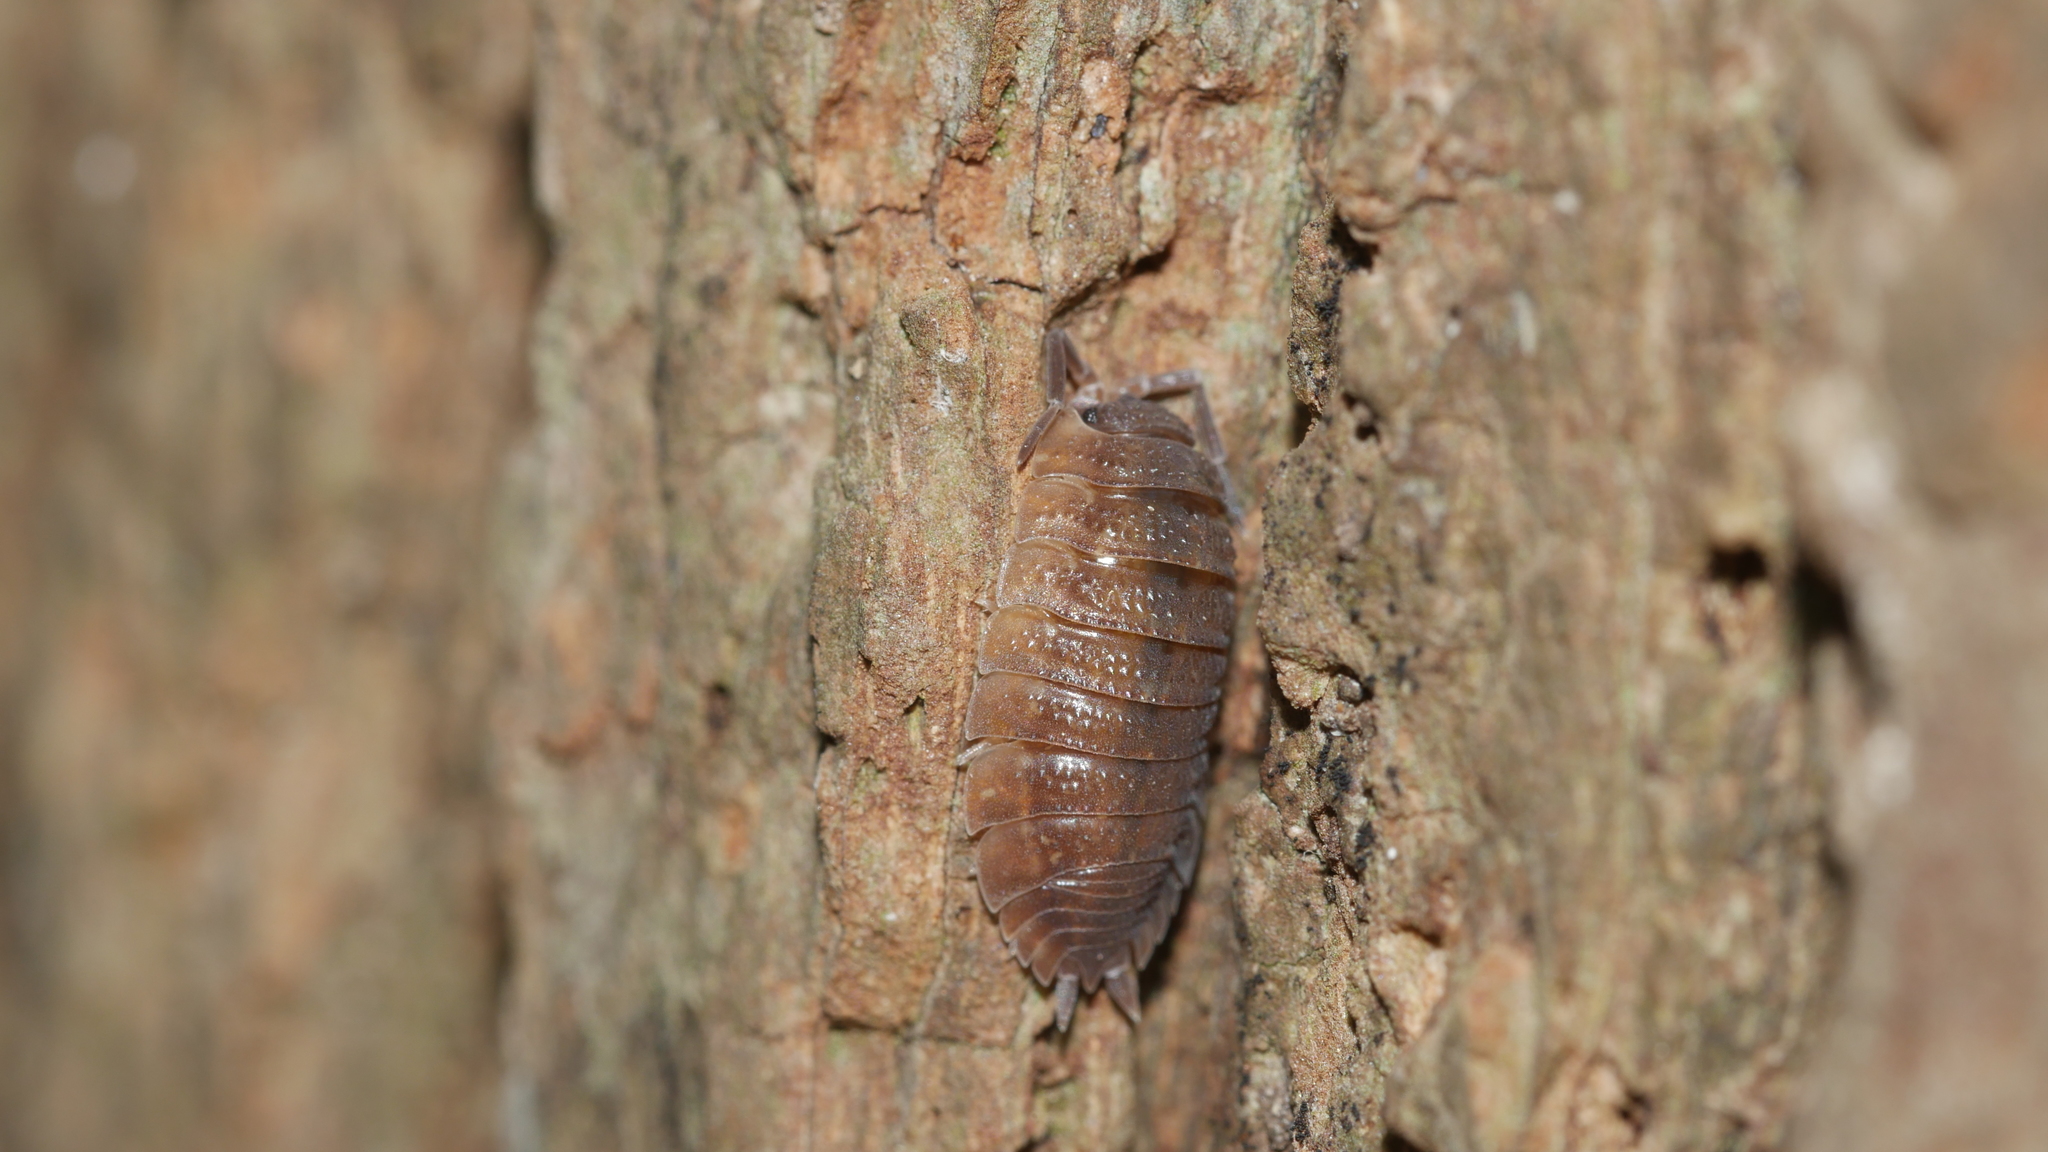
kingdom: Animalia
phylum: Arthropoda
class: Malacostraca
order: Isopoda
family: Porcellionidae
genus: Porcellio
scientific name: Porcellio scaber
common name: Common rough woodlouse
